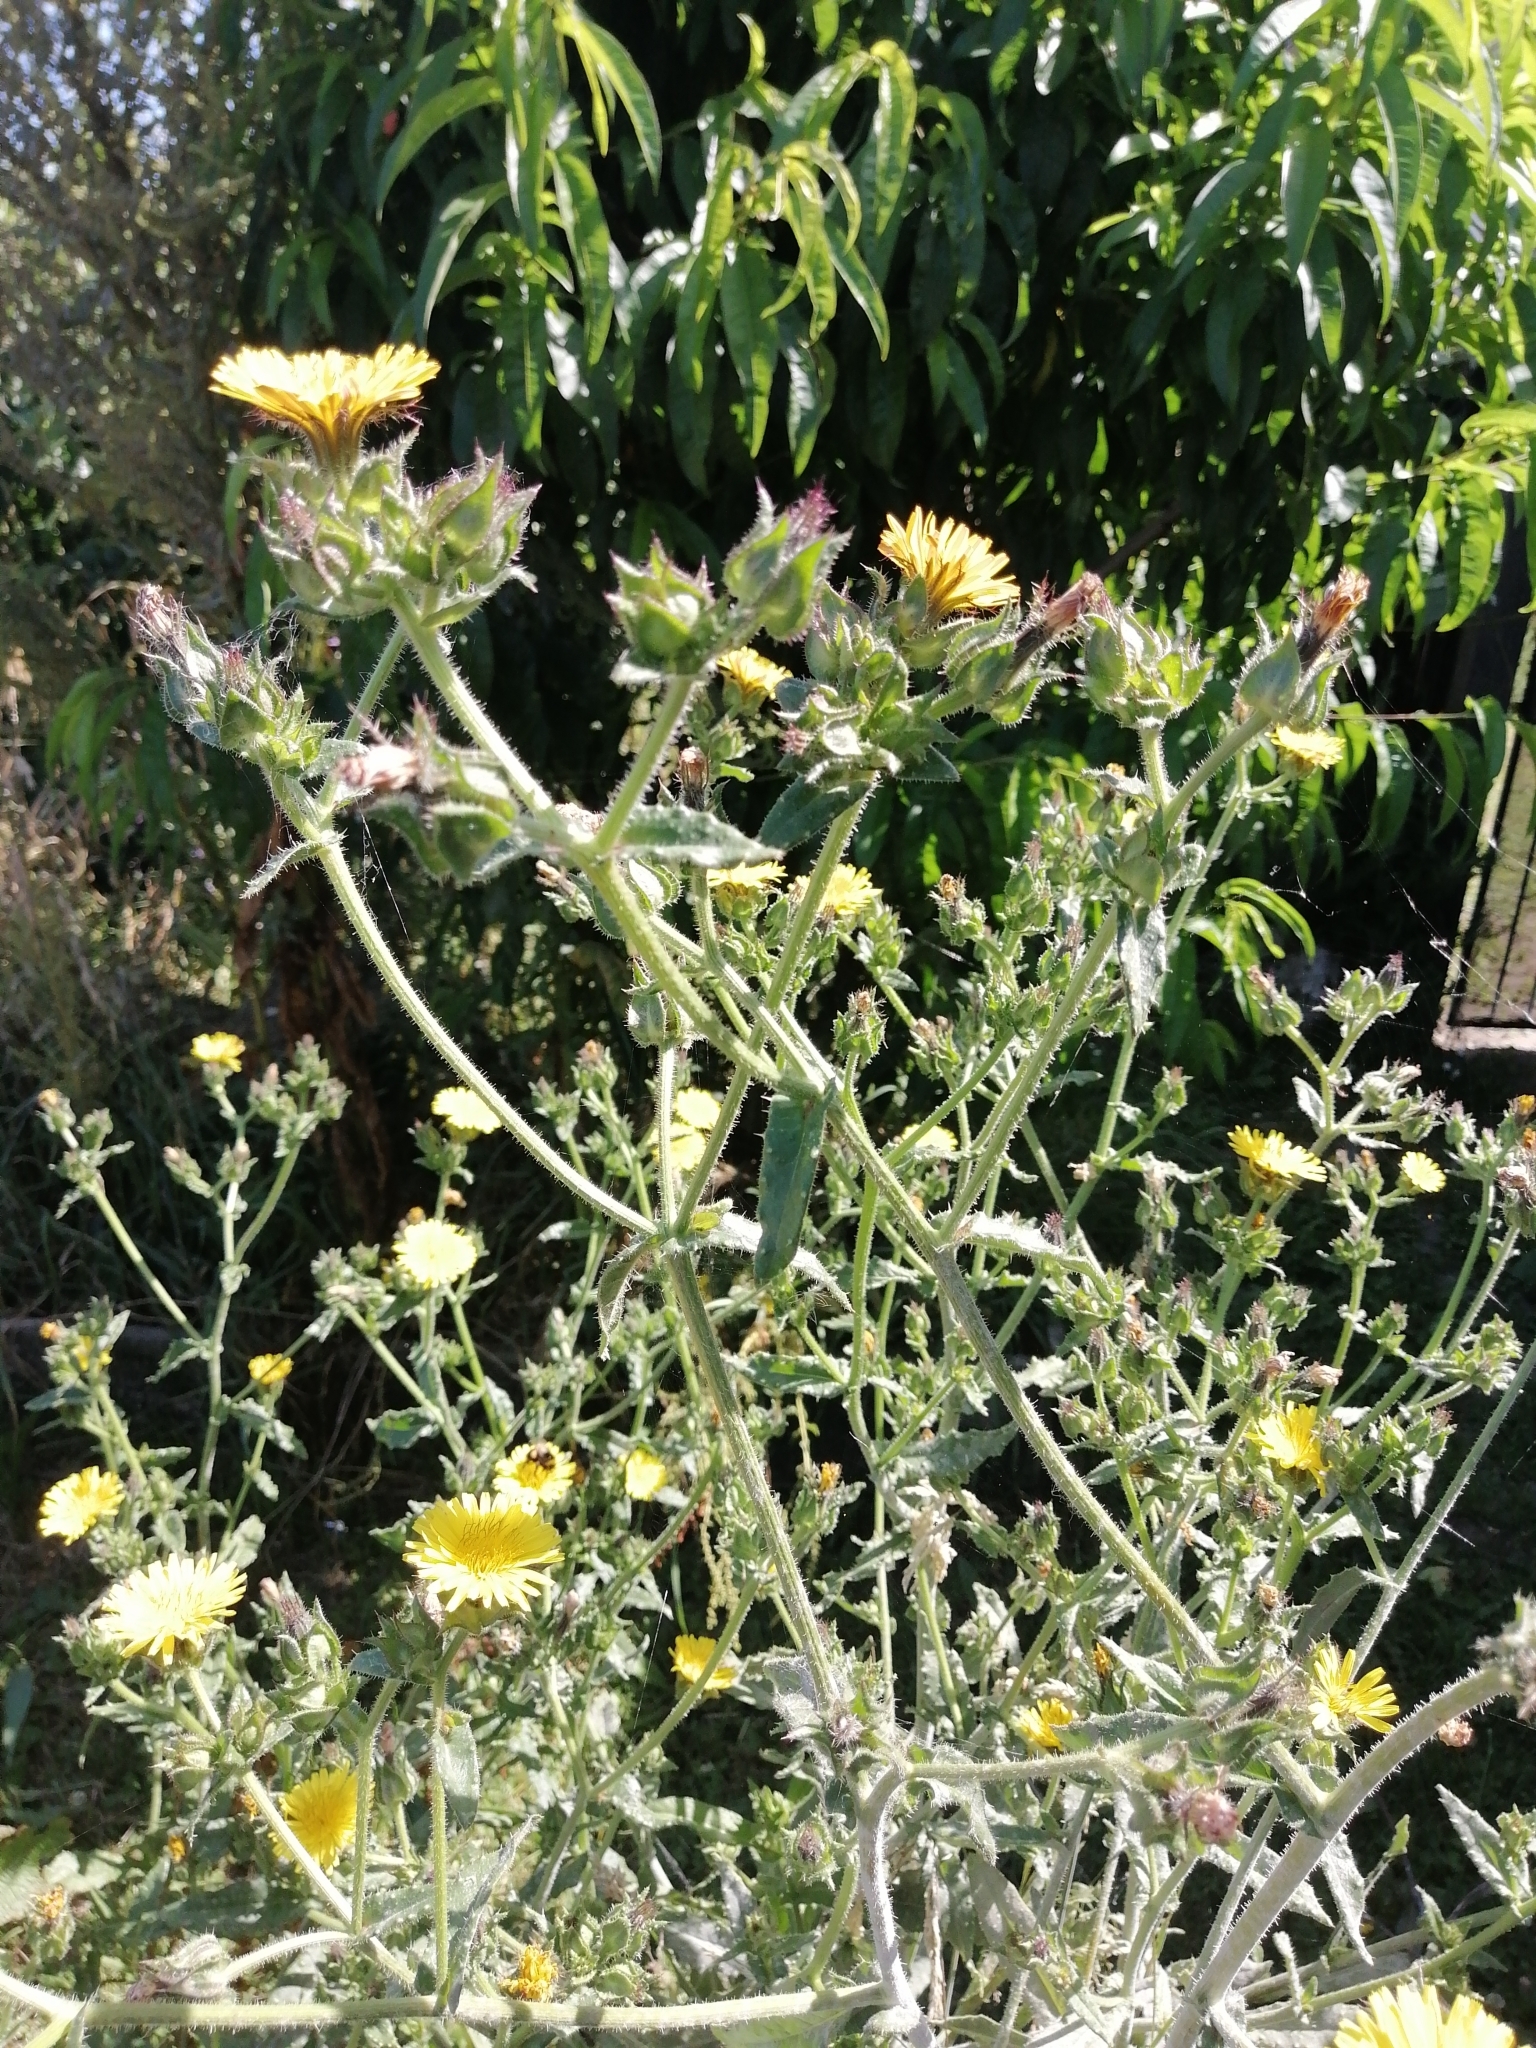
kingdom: Plantae
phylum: Tracheophyta
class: Magnoliopsida
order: Asterales
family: Asteraceae
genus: Helminthotheca
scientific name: Helminthotheca echioides
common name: Ox-tongue
